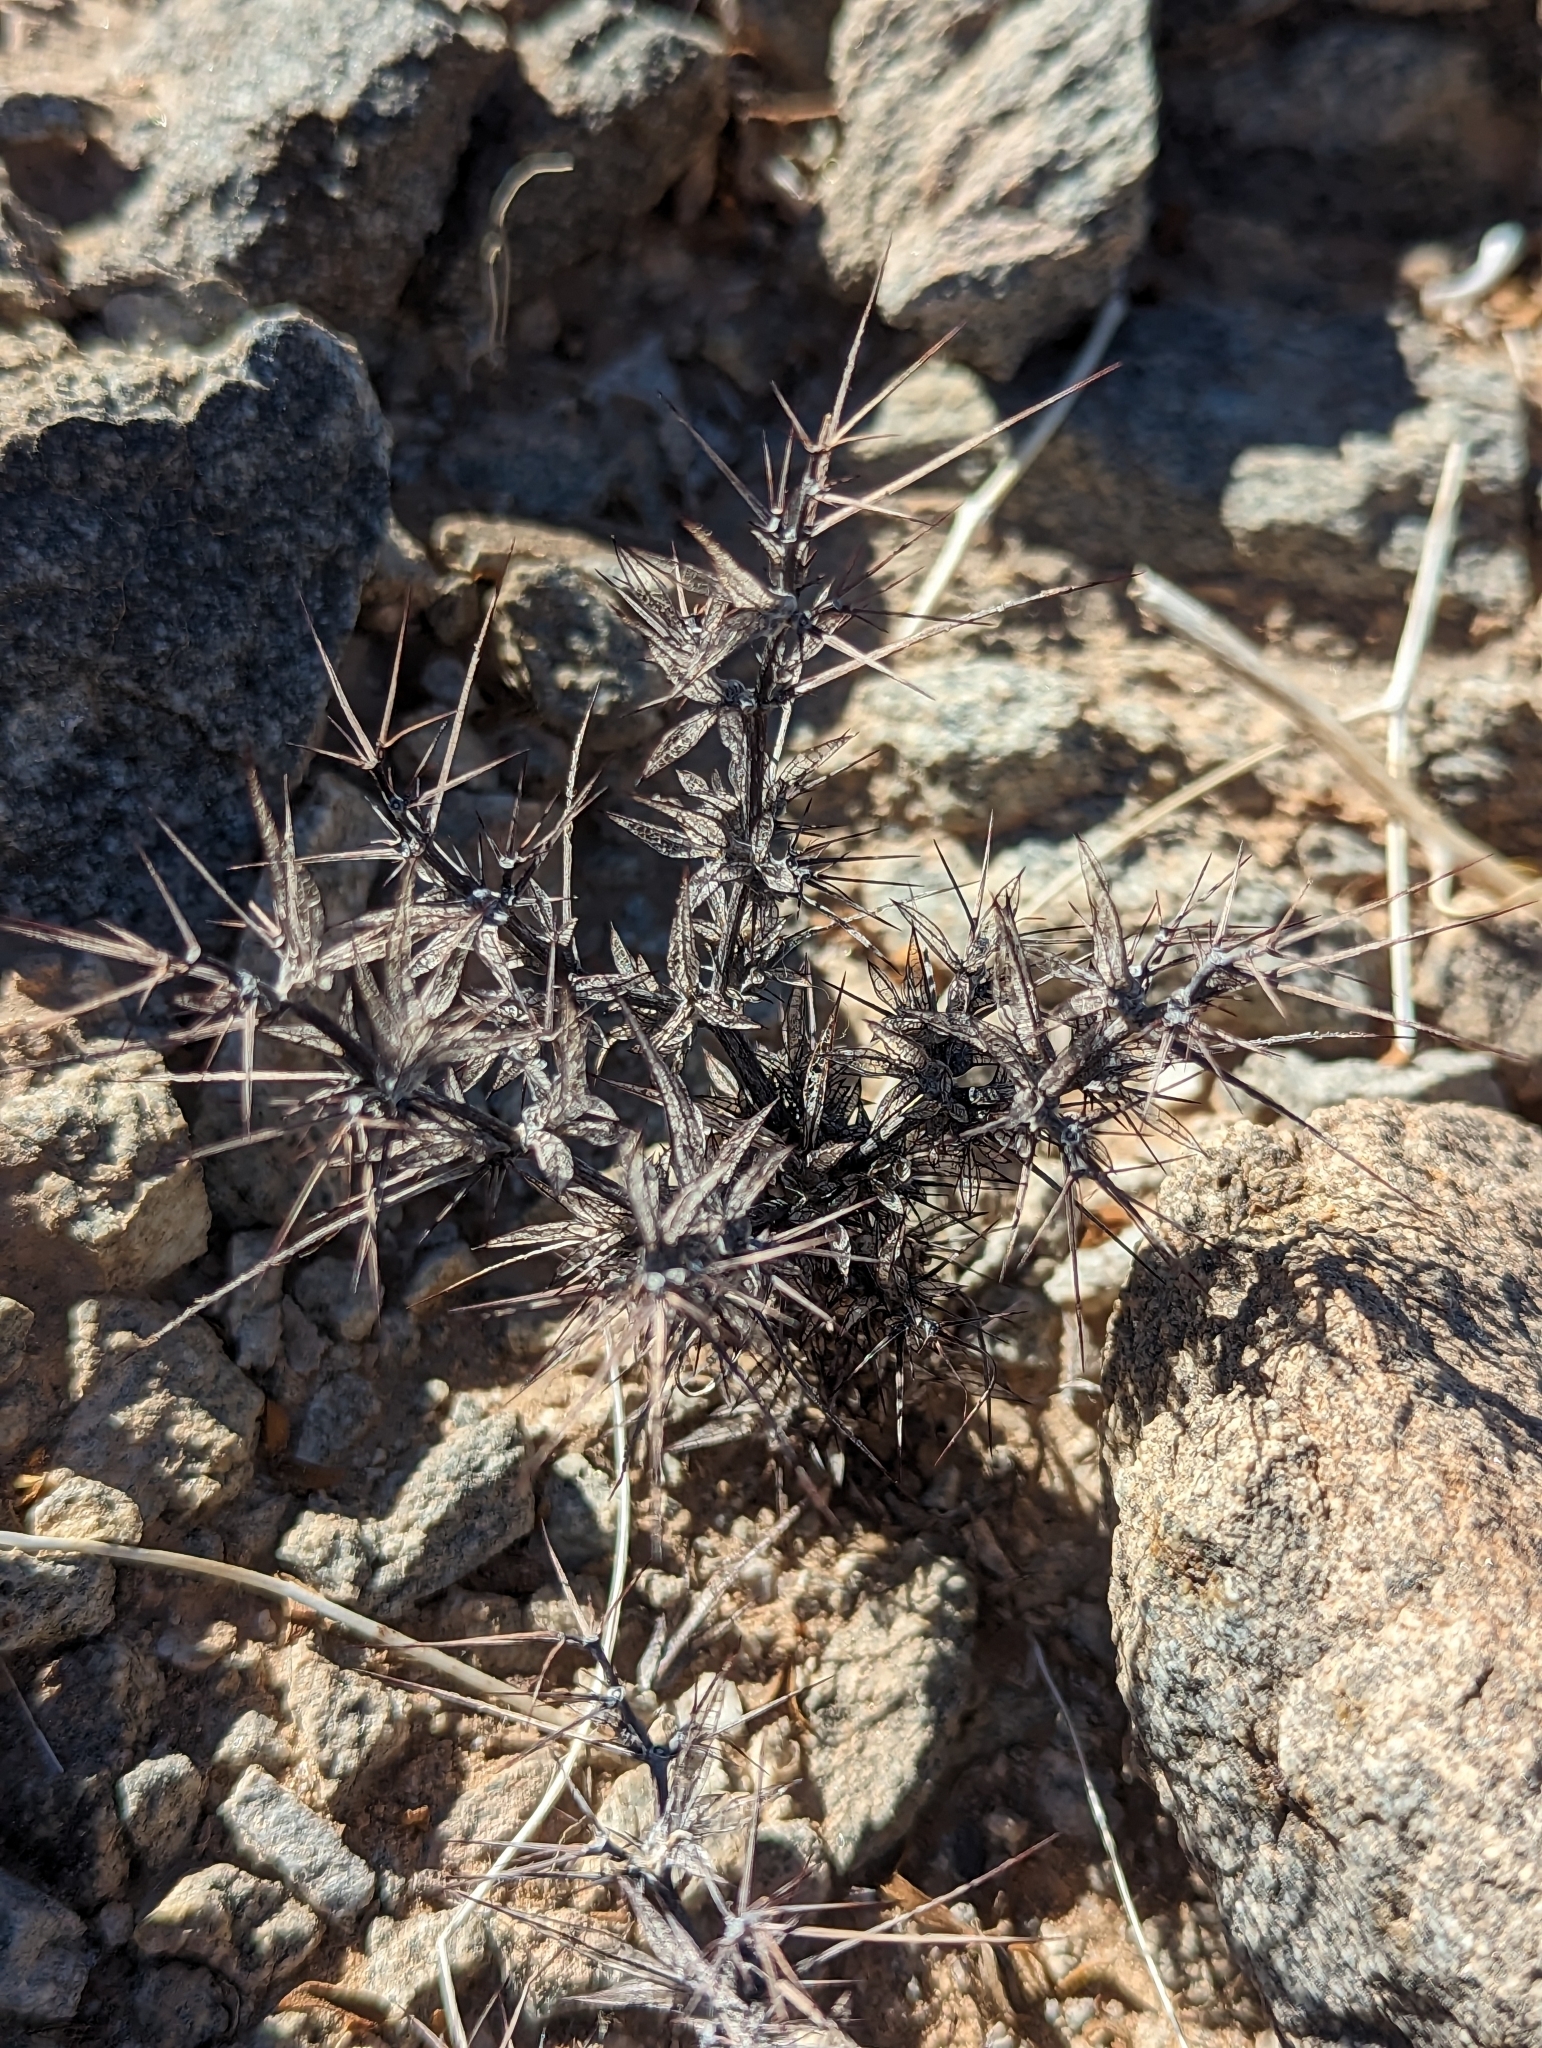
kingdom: Plantae
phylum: Tracheophyta
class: Magnoliopsida
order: Caryophyllales
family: Polygonaceae
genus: Chorizanthe
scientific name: Chorizanthe rigida
